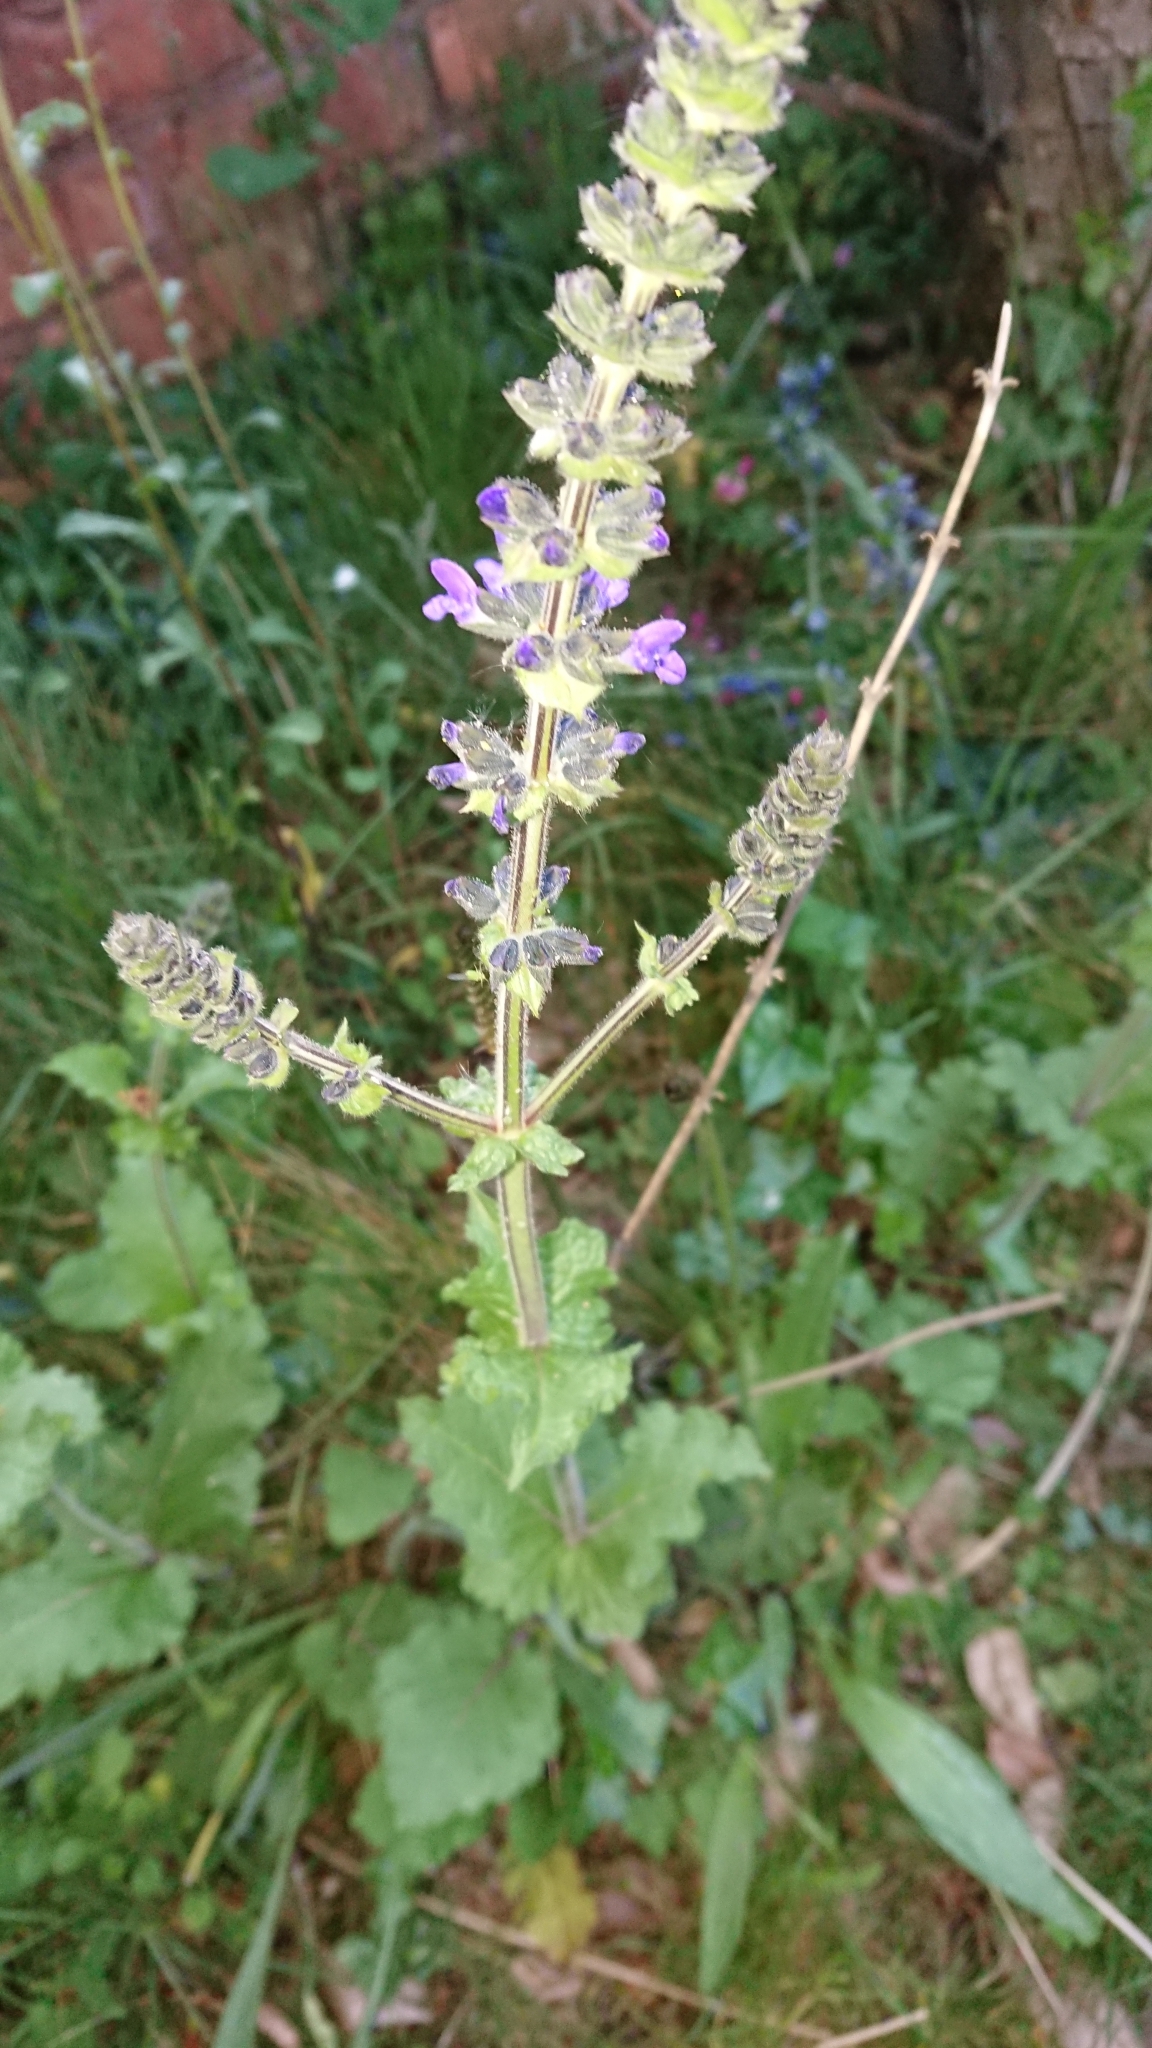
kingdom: Plantae
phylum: Tracheophyta
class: Magnoliopsida
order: Lamiales
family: Lamiaceae
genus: Salvia
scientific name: Salvia verbenaca
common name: Wild clary
